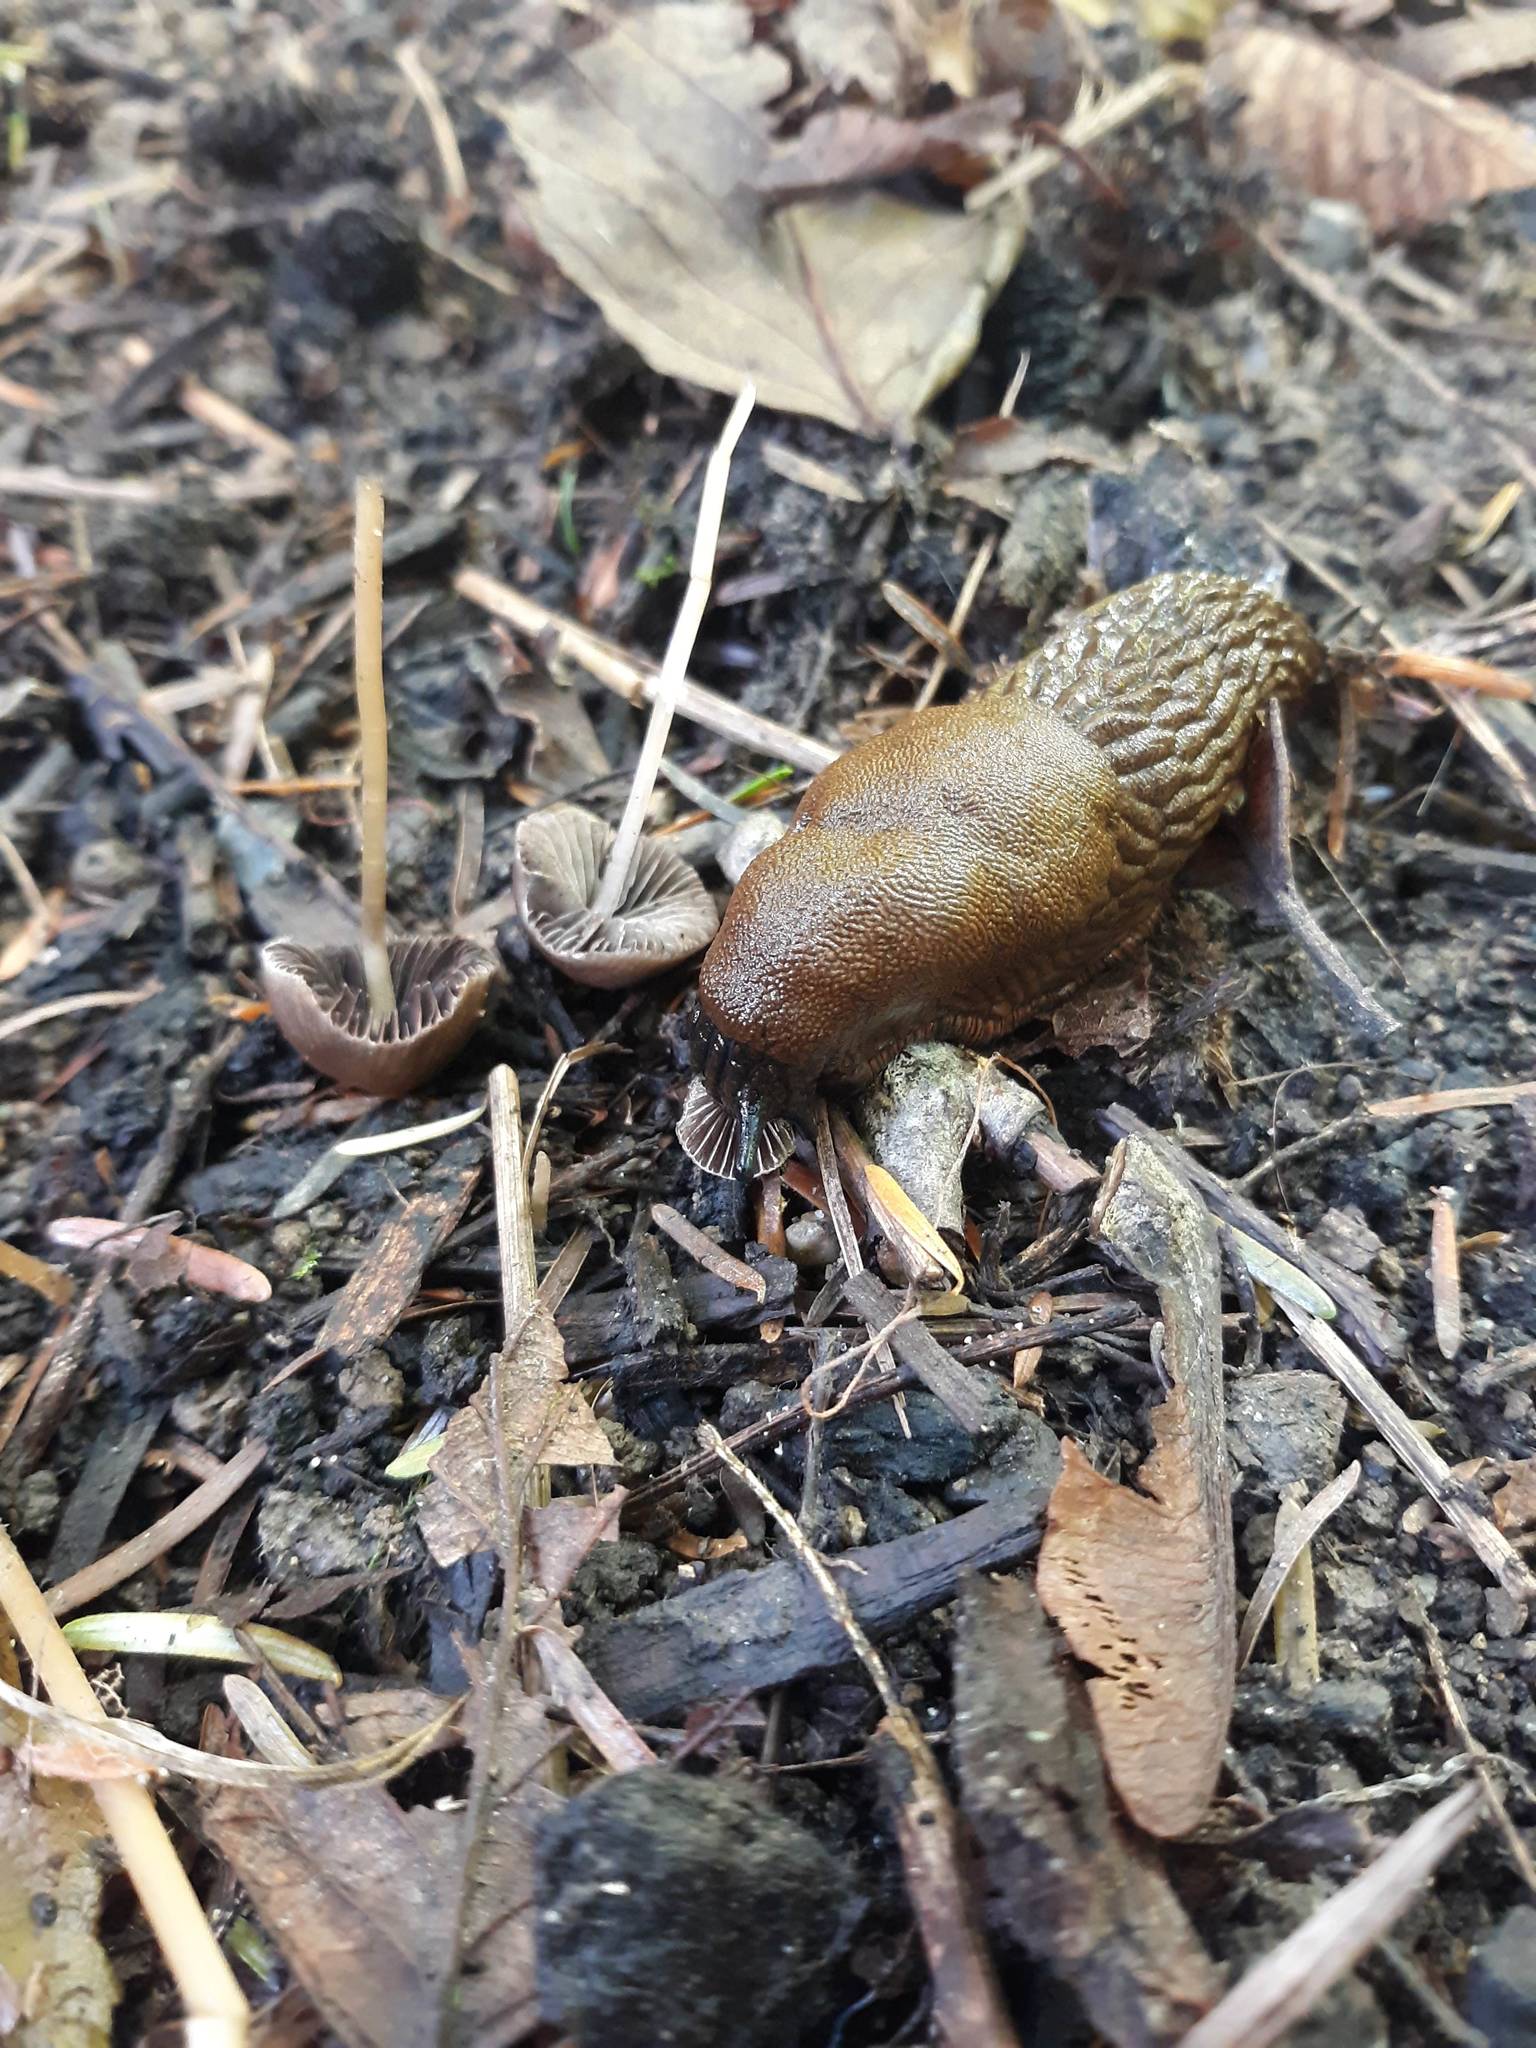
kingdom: Animalia
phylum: Mollusca
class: Gastropoda
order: Stylommatophora
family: Arionidae
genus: Arion
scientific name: Arion rufus
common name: Chocolate arion
